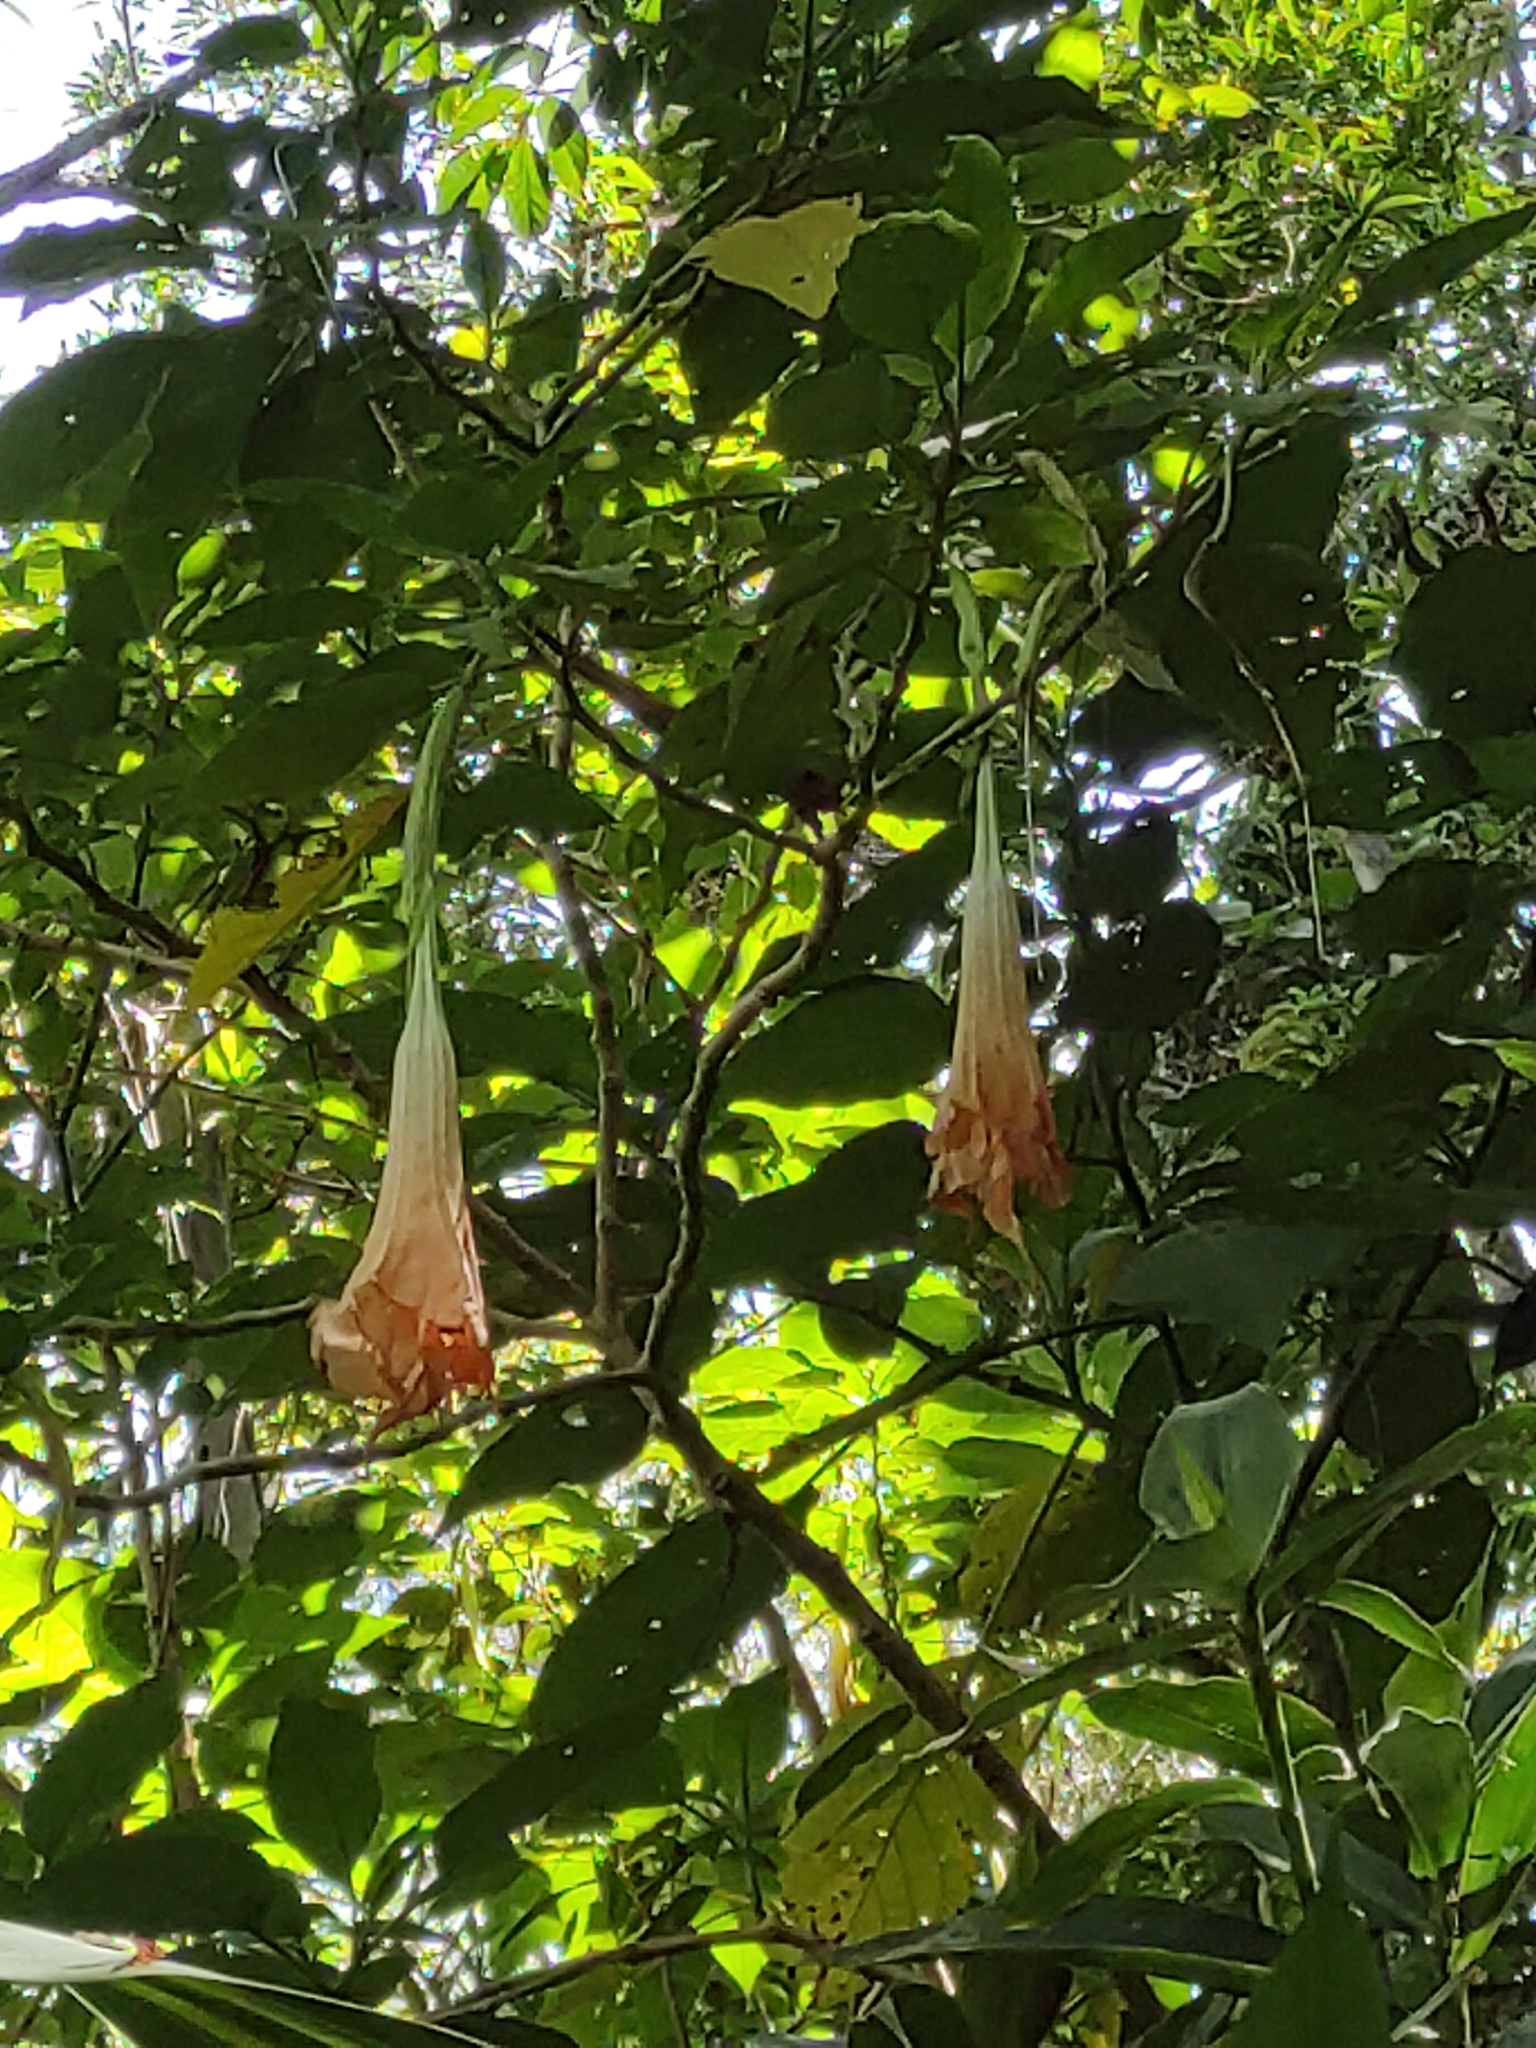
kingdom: Plantae
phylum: Tracheophyta
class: Magnoliopsida
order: Solanales
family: Solanaceae
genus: Brugmansia
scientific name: Brugmansia suaveolens
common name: Angel's tears
